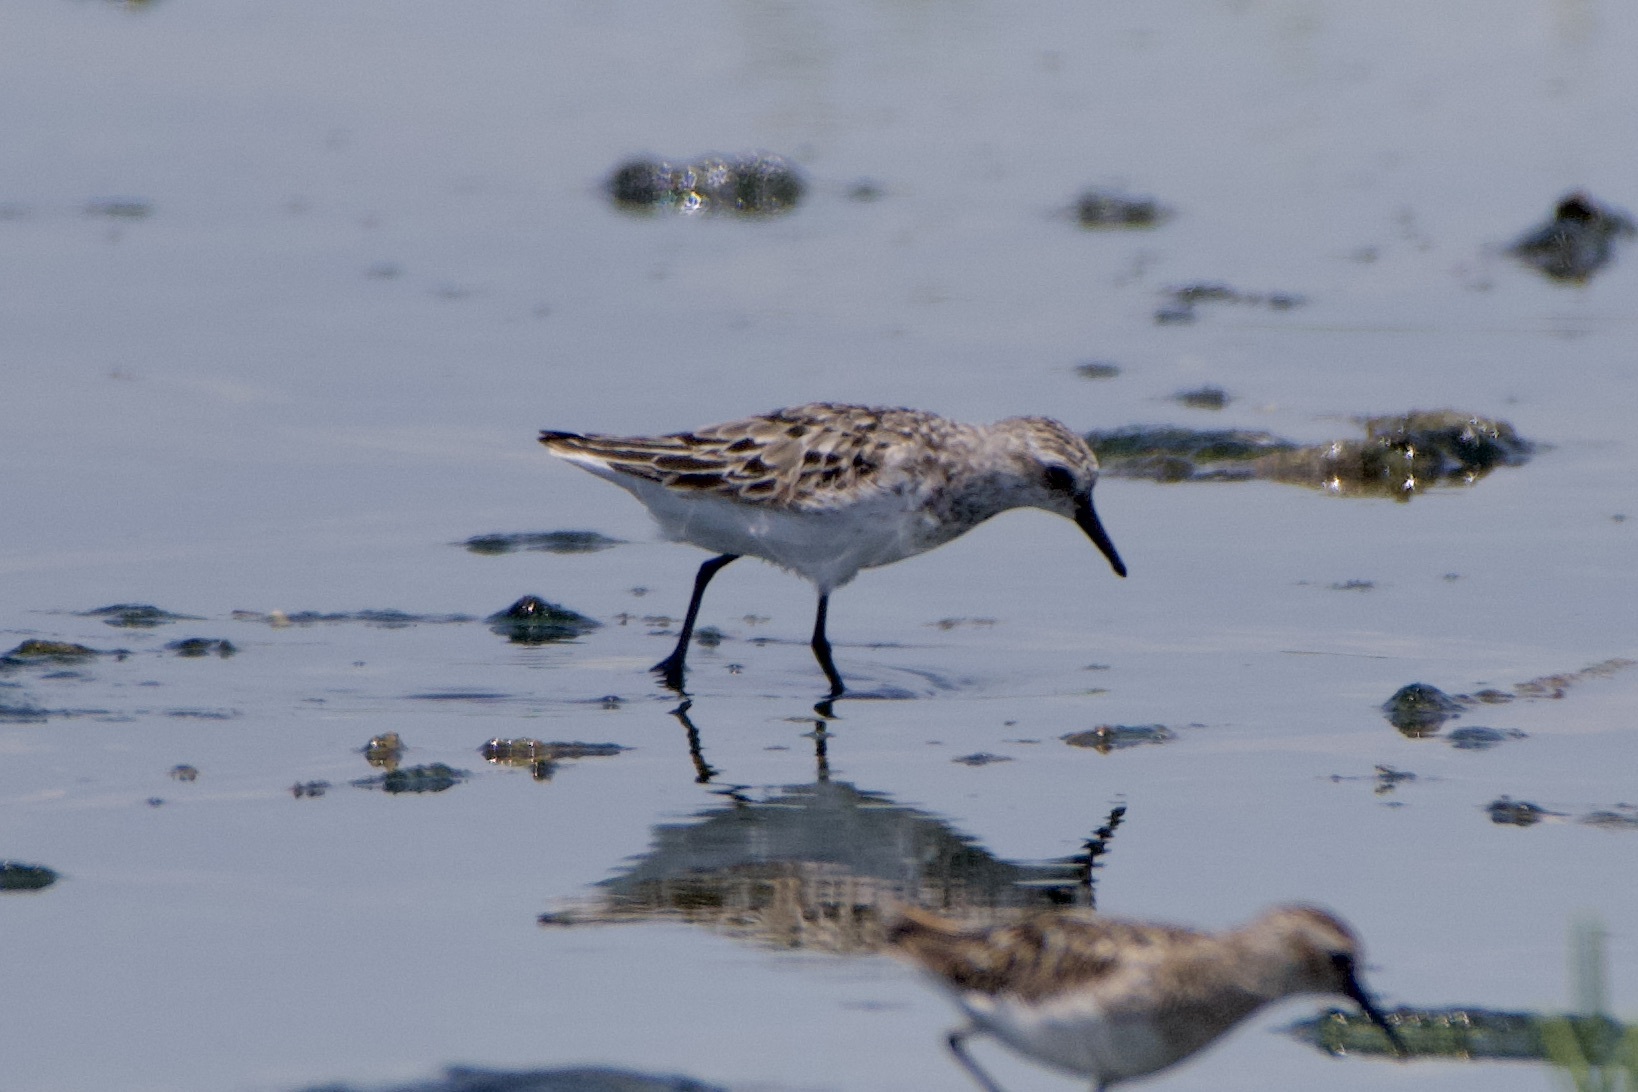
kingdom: Animalia
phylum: Chordata
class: Aves
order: Charadriiformes
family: Scolopacidae
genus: Calidris
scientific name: Calidris pusilla
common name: Semipalmated sandpiper
